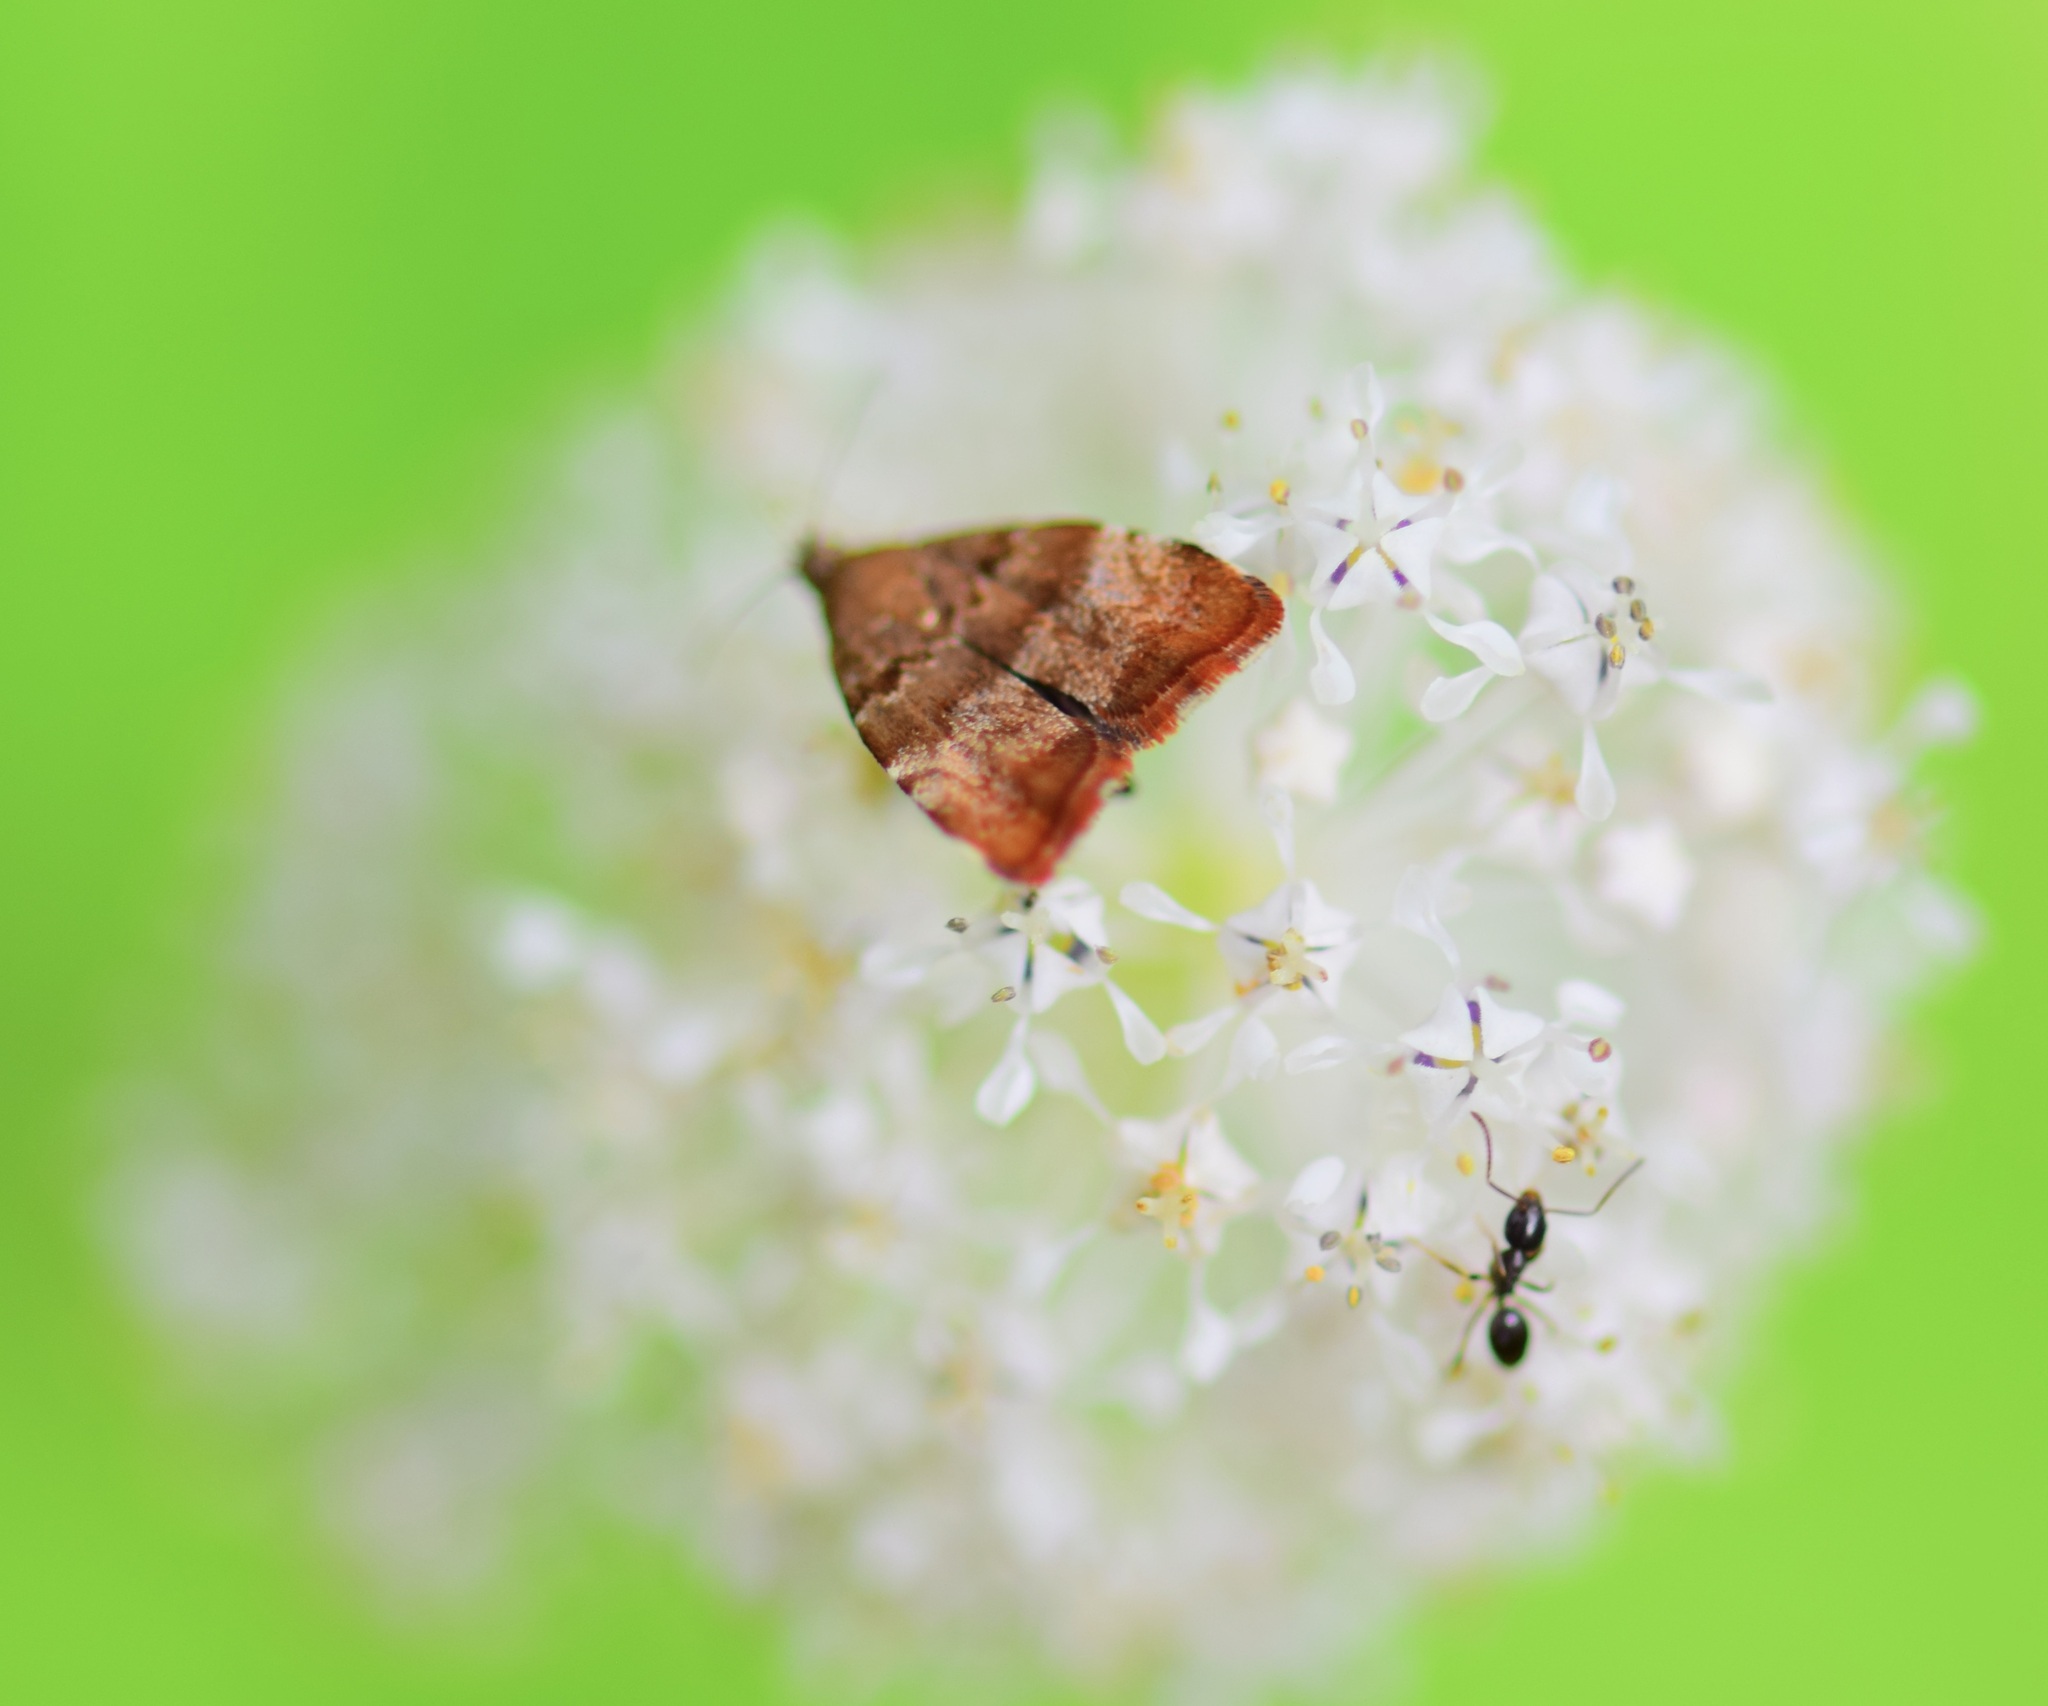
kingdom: Animalia
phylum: Arthropoda
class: Insecta
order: Lepidoptera
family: Choreutidae
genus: Choreutis
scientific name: Choreutis pariana
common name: Apple leaf skeletoniser
